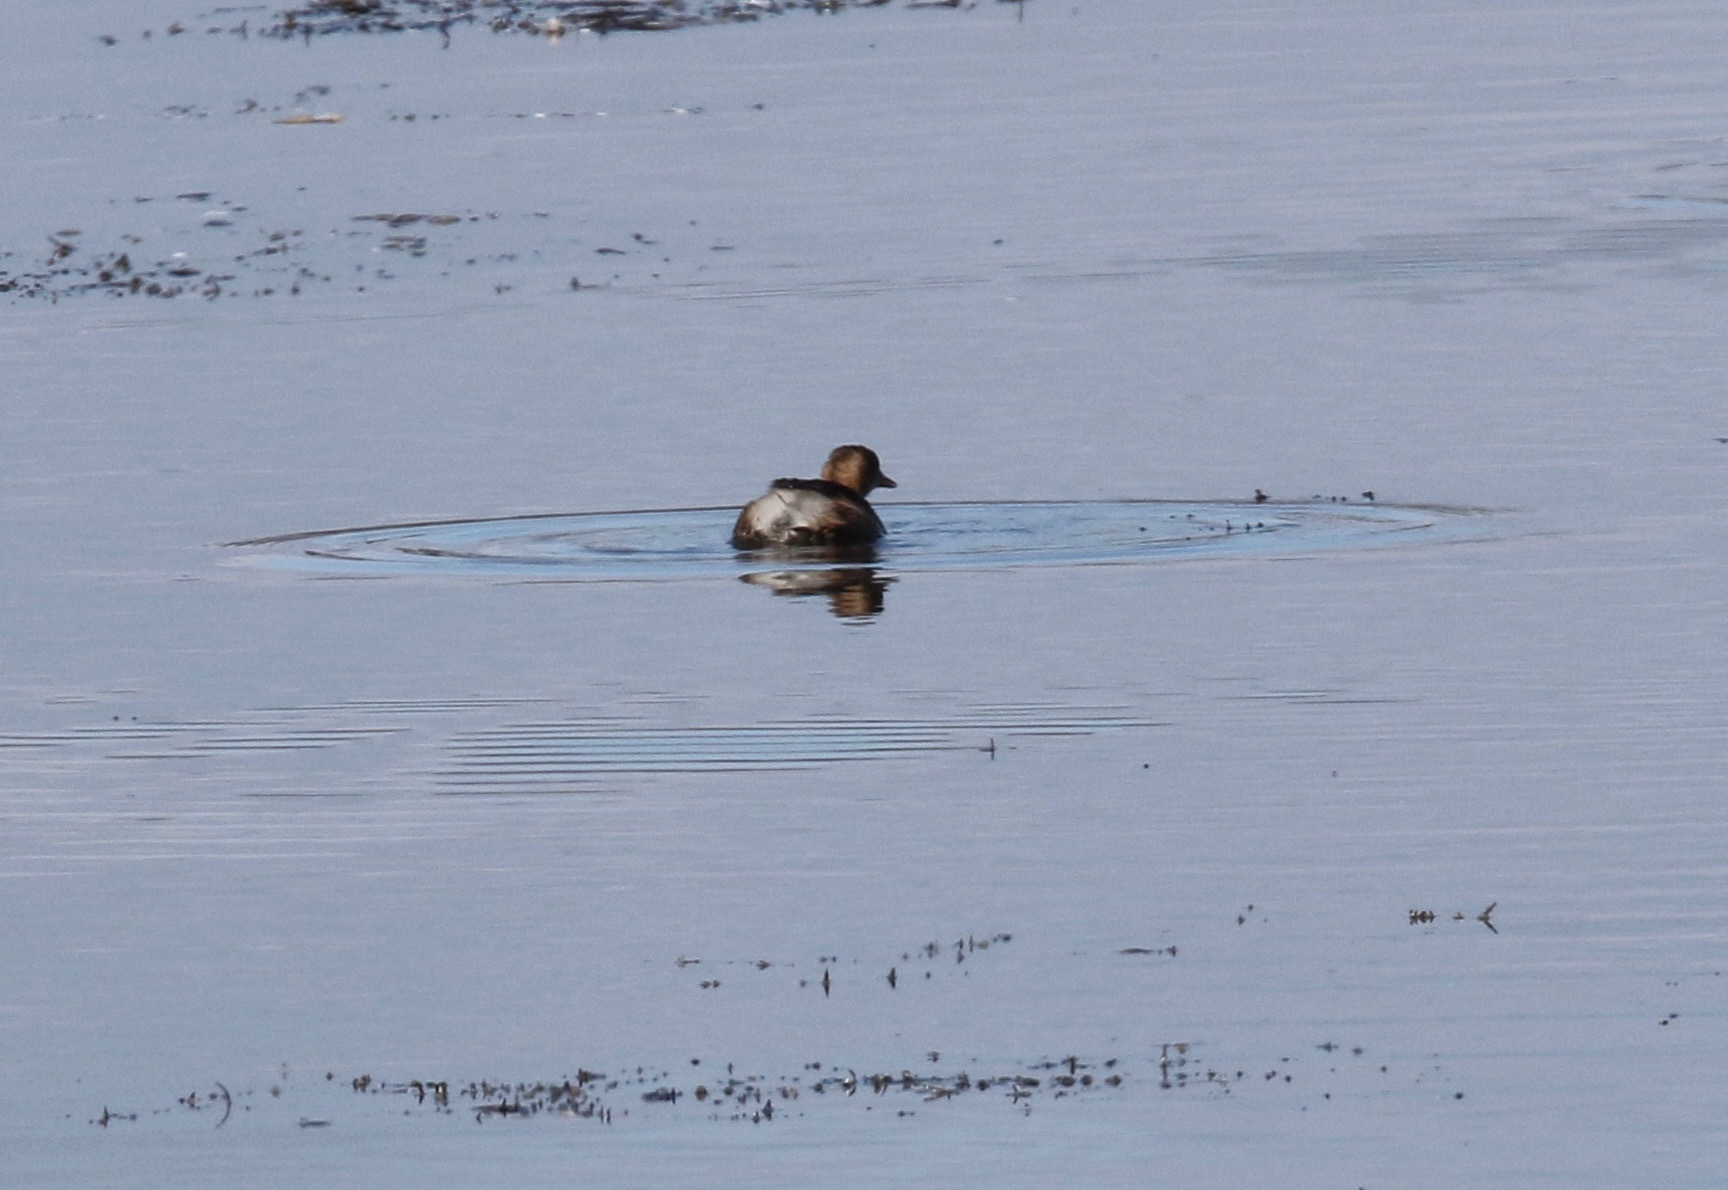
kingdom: Animalia
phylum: Chordata
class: Aves
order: Podicipediformes
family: Podicipedidae
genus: Tachybaptus
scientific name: Tachybaptus ruficollis
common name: Little grebe
